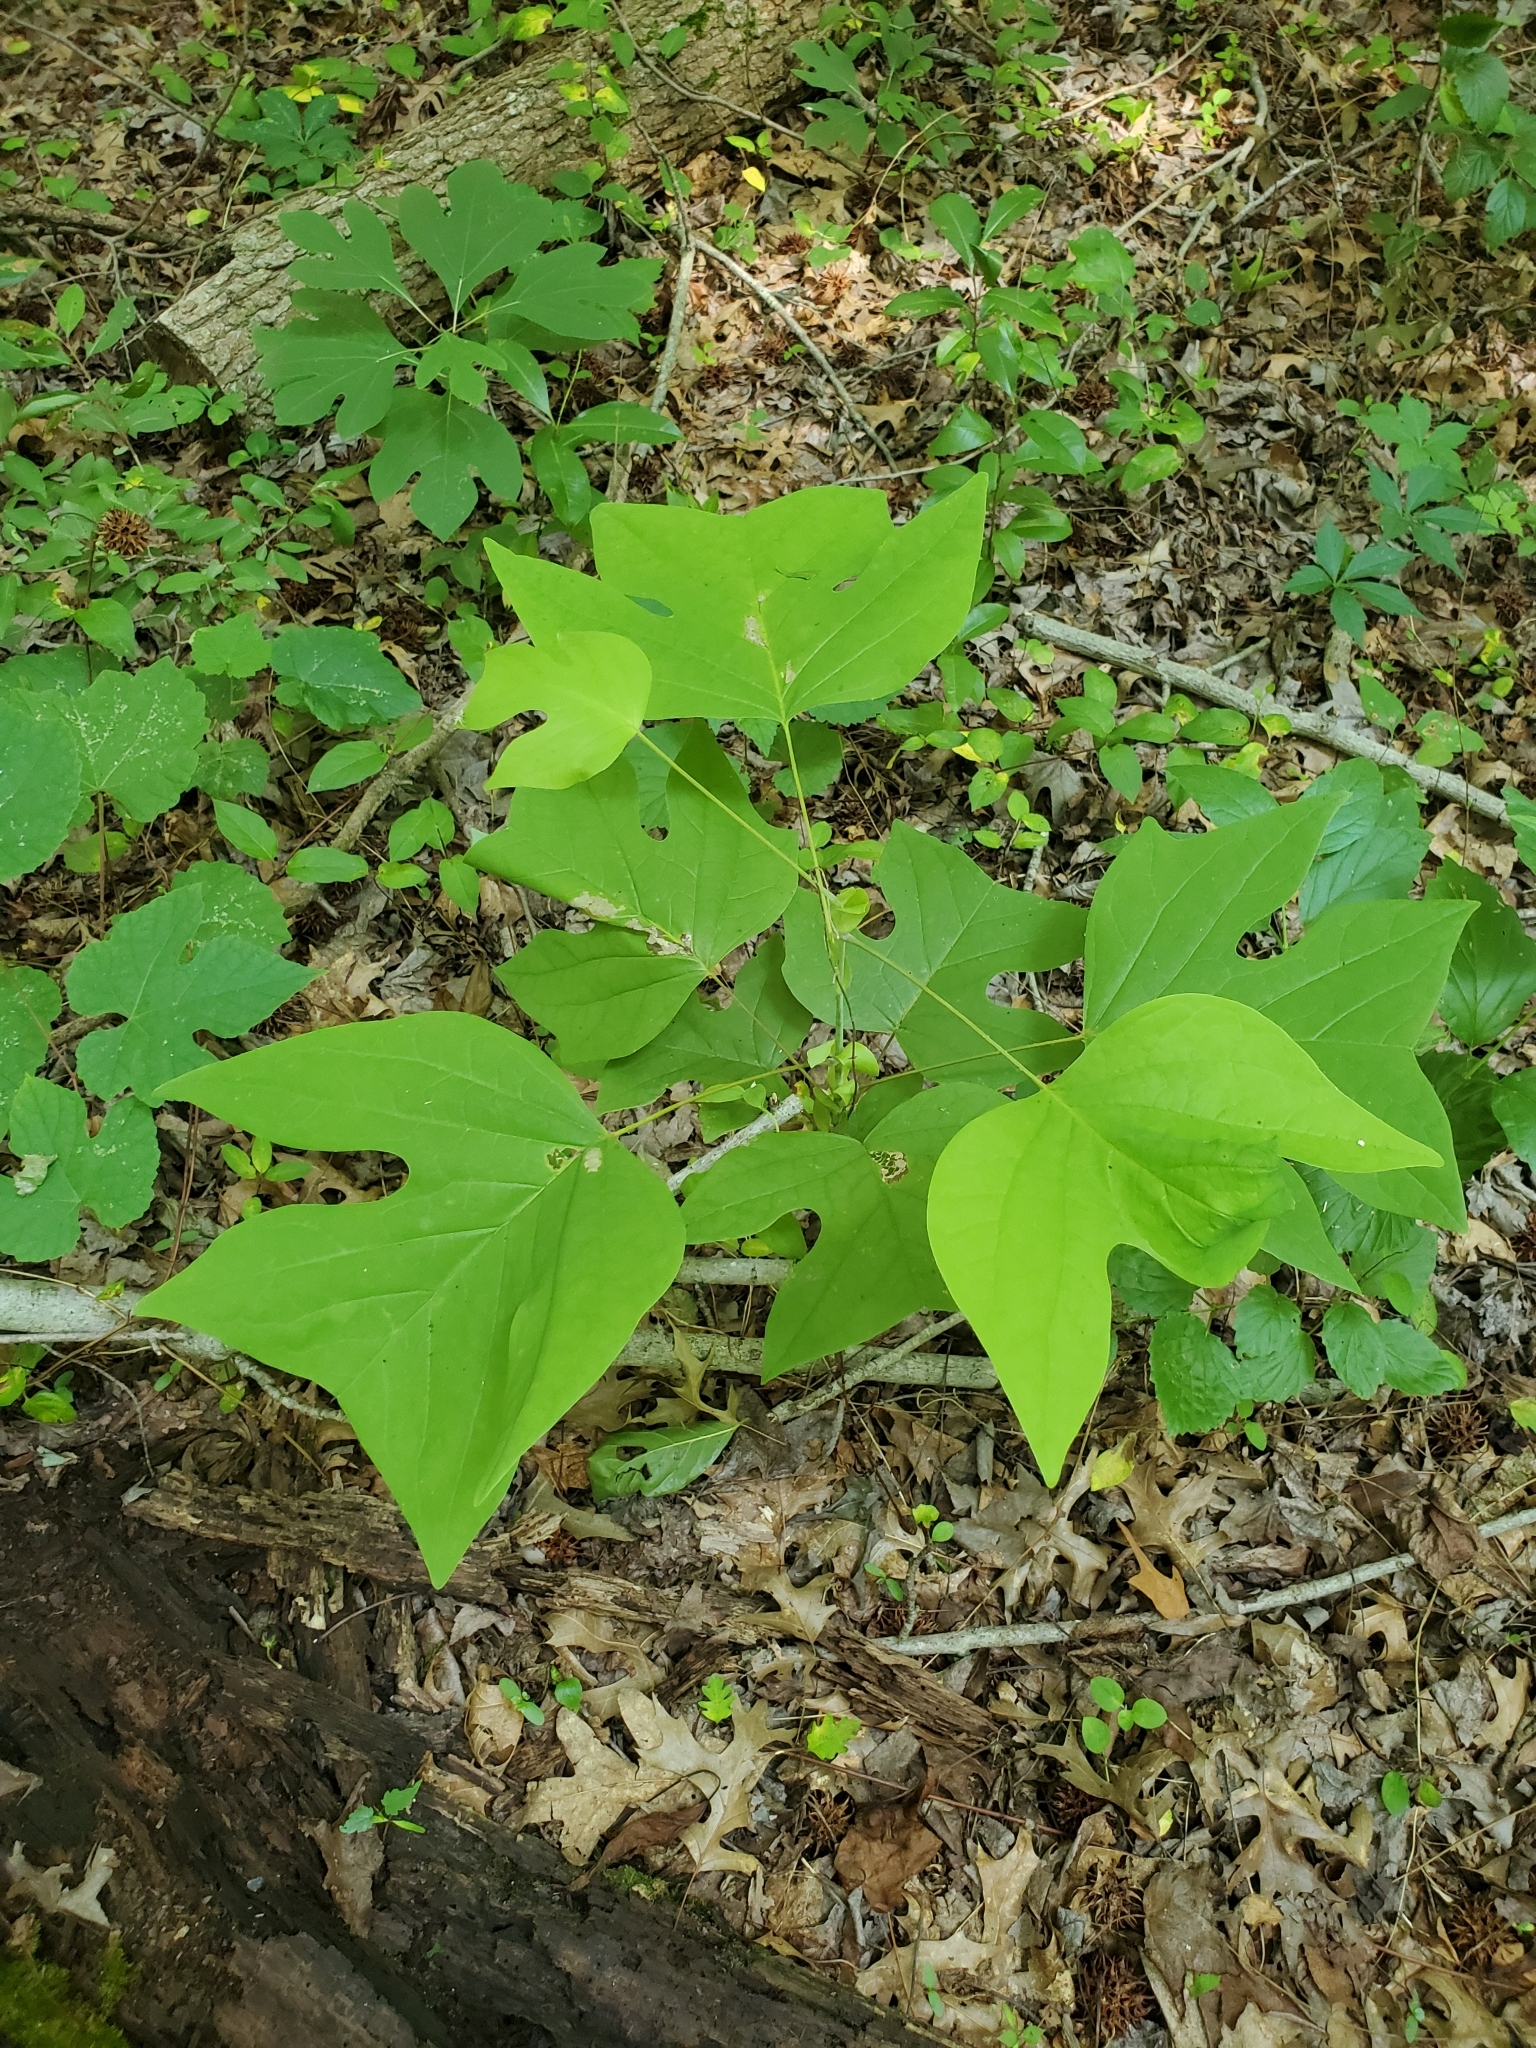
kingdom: Plantae
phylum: Tracheophyta
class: Magnoliopsida
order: Magnoliales
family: Magnoliaceae
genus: Liriodendron
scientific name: Liriodendron tulipifera
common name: Tulip tree
